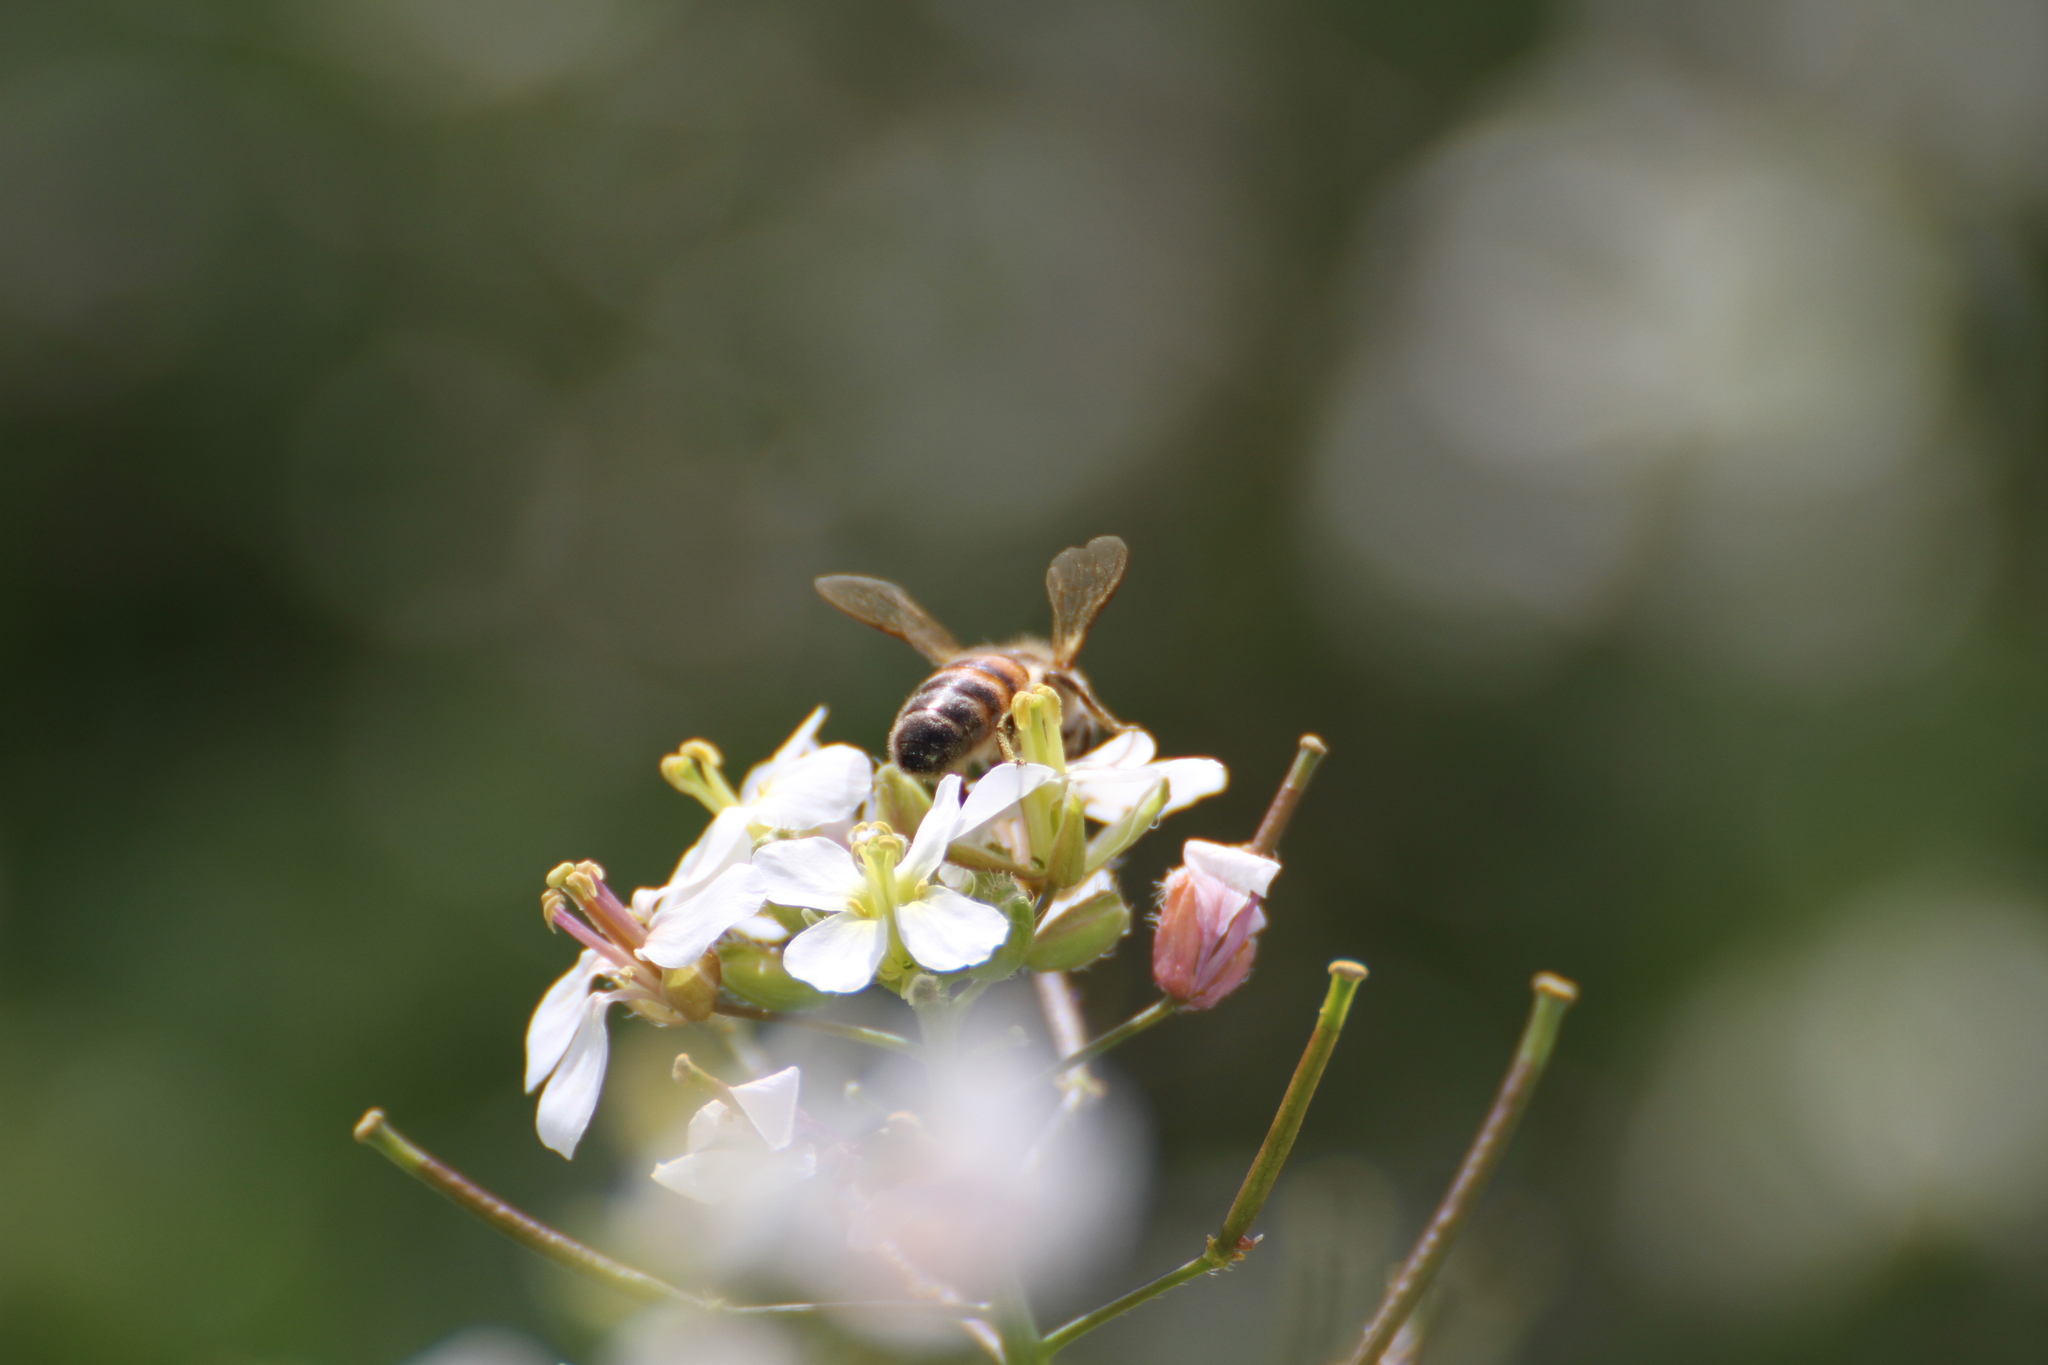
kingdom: Animalia
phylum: Arthropoda
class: Insecta
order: Hymenoptera
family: Apidae
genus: Apis
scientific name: Apis mellifera
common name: Honey bee
